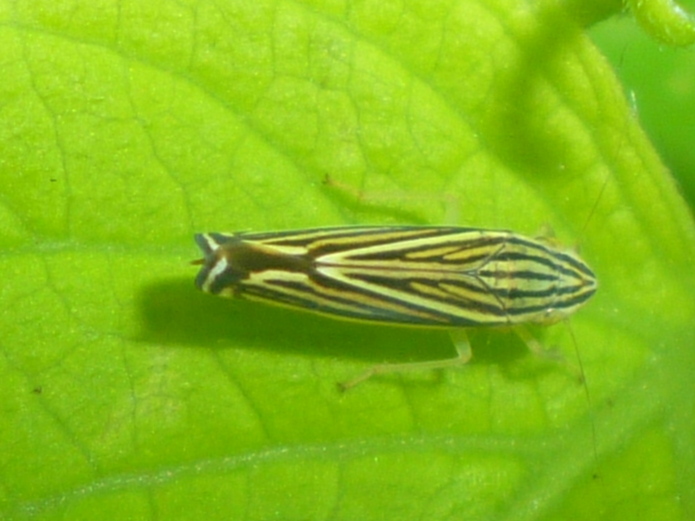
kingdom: Animalia
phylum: Arthropoda
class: Insecta
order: Hemiptera
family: Cicadellidae
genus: Sibovia
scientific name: Sibovia occatoria
